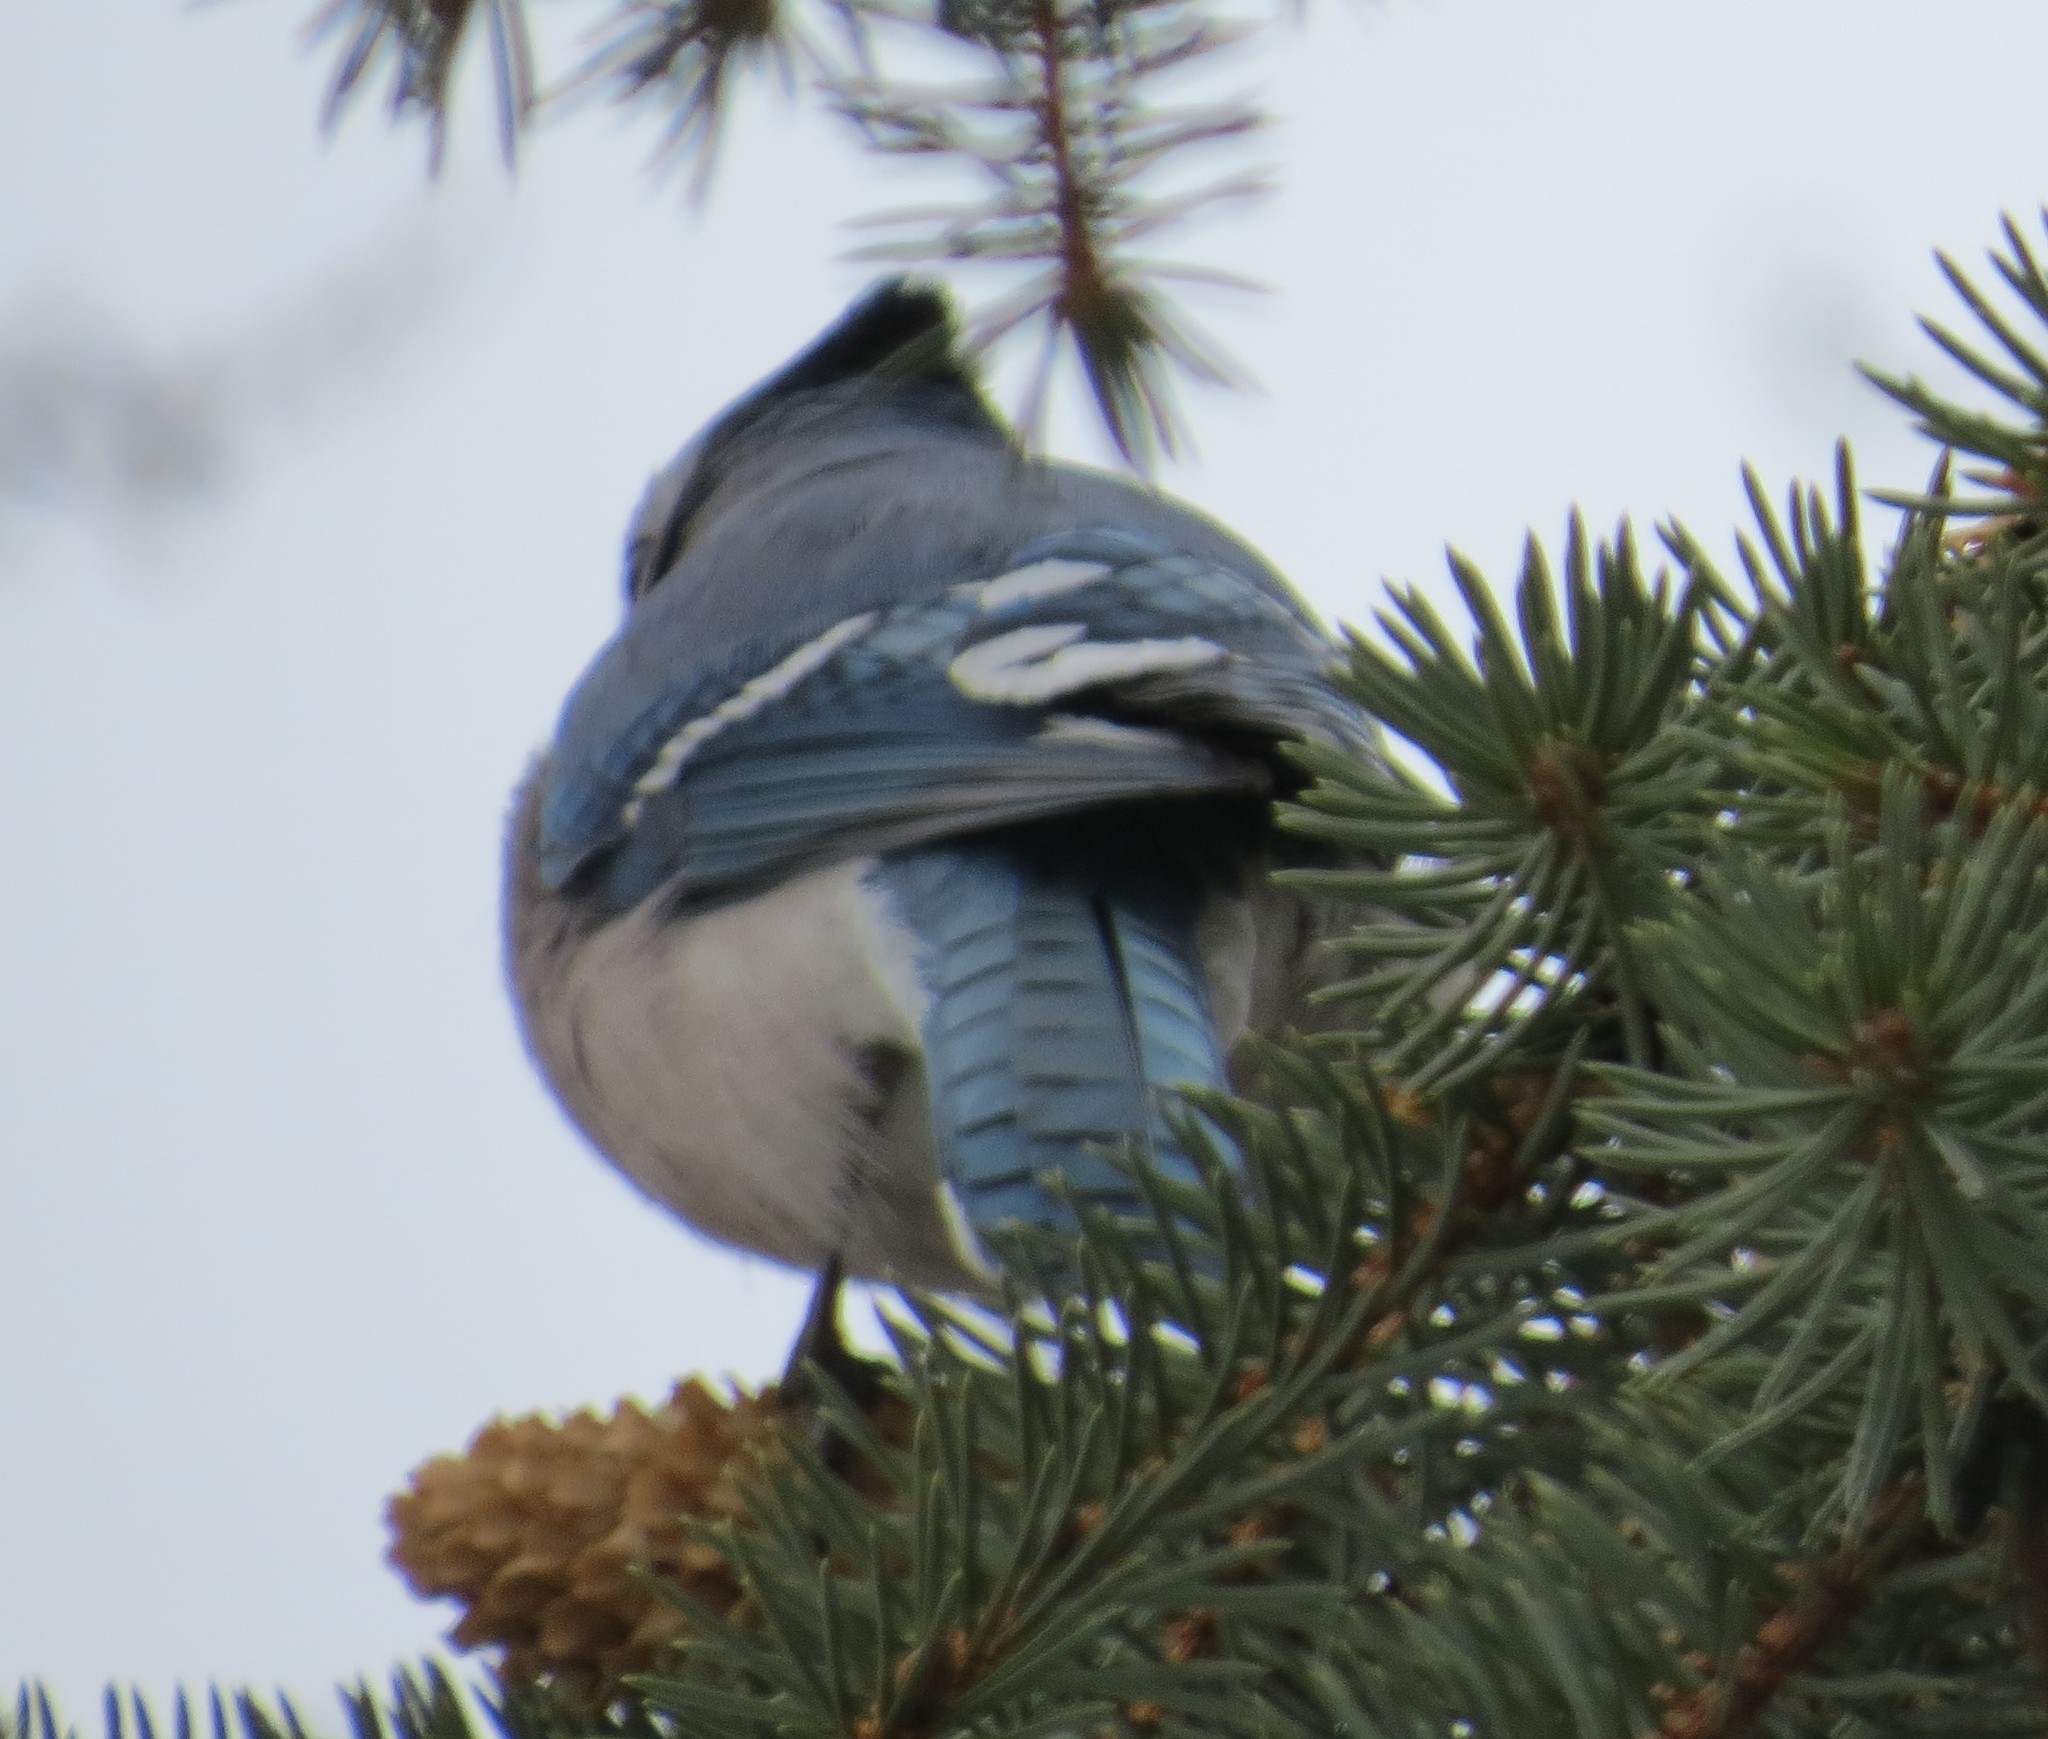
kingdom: Animalia
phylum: Chordata
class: Aves
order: Passeriformes
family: Corvidae
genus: Cyanocitta
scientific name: Cyanocitta cristata
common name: Blue jay
